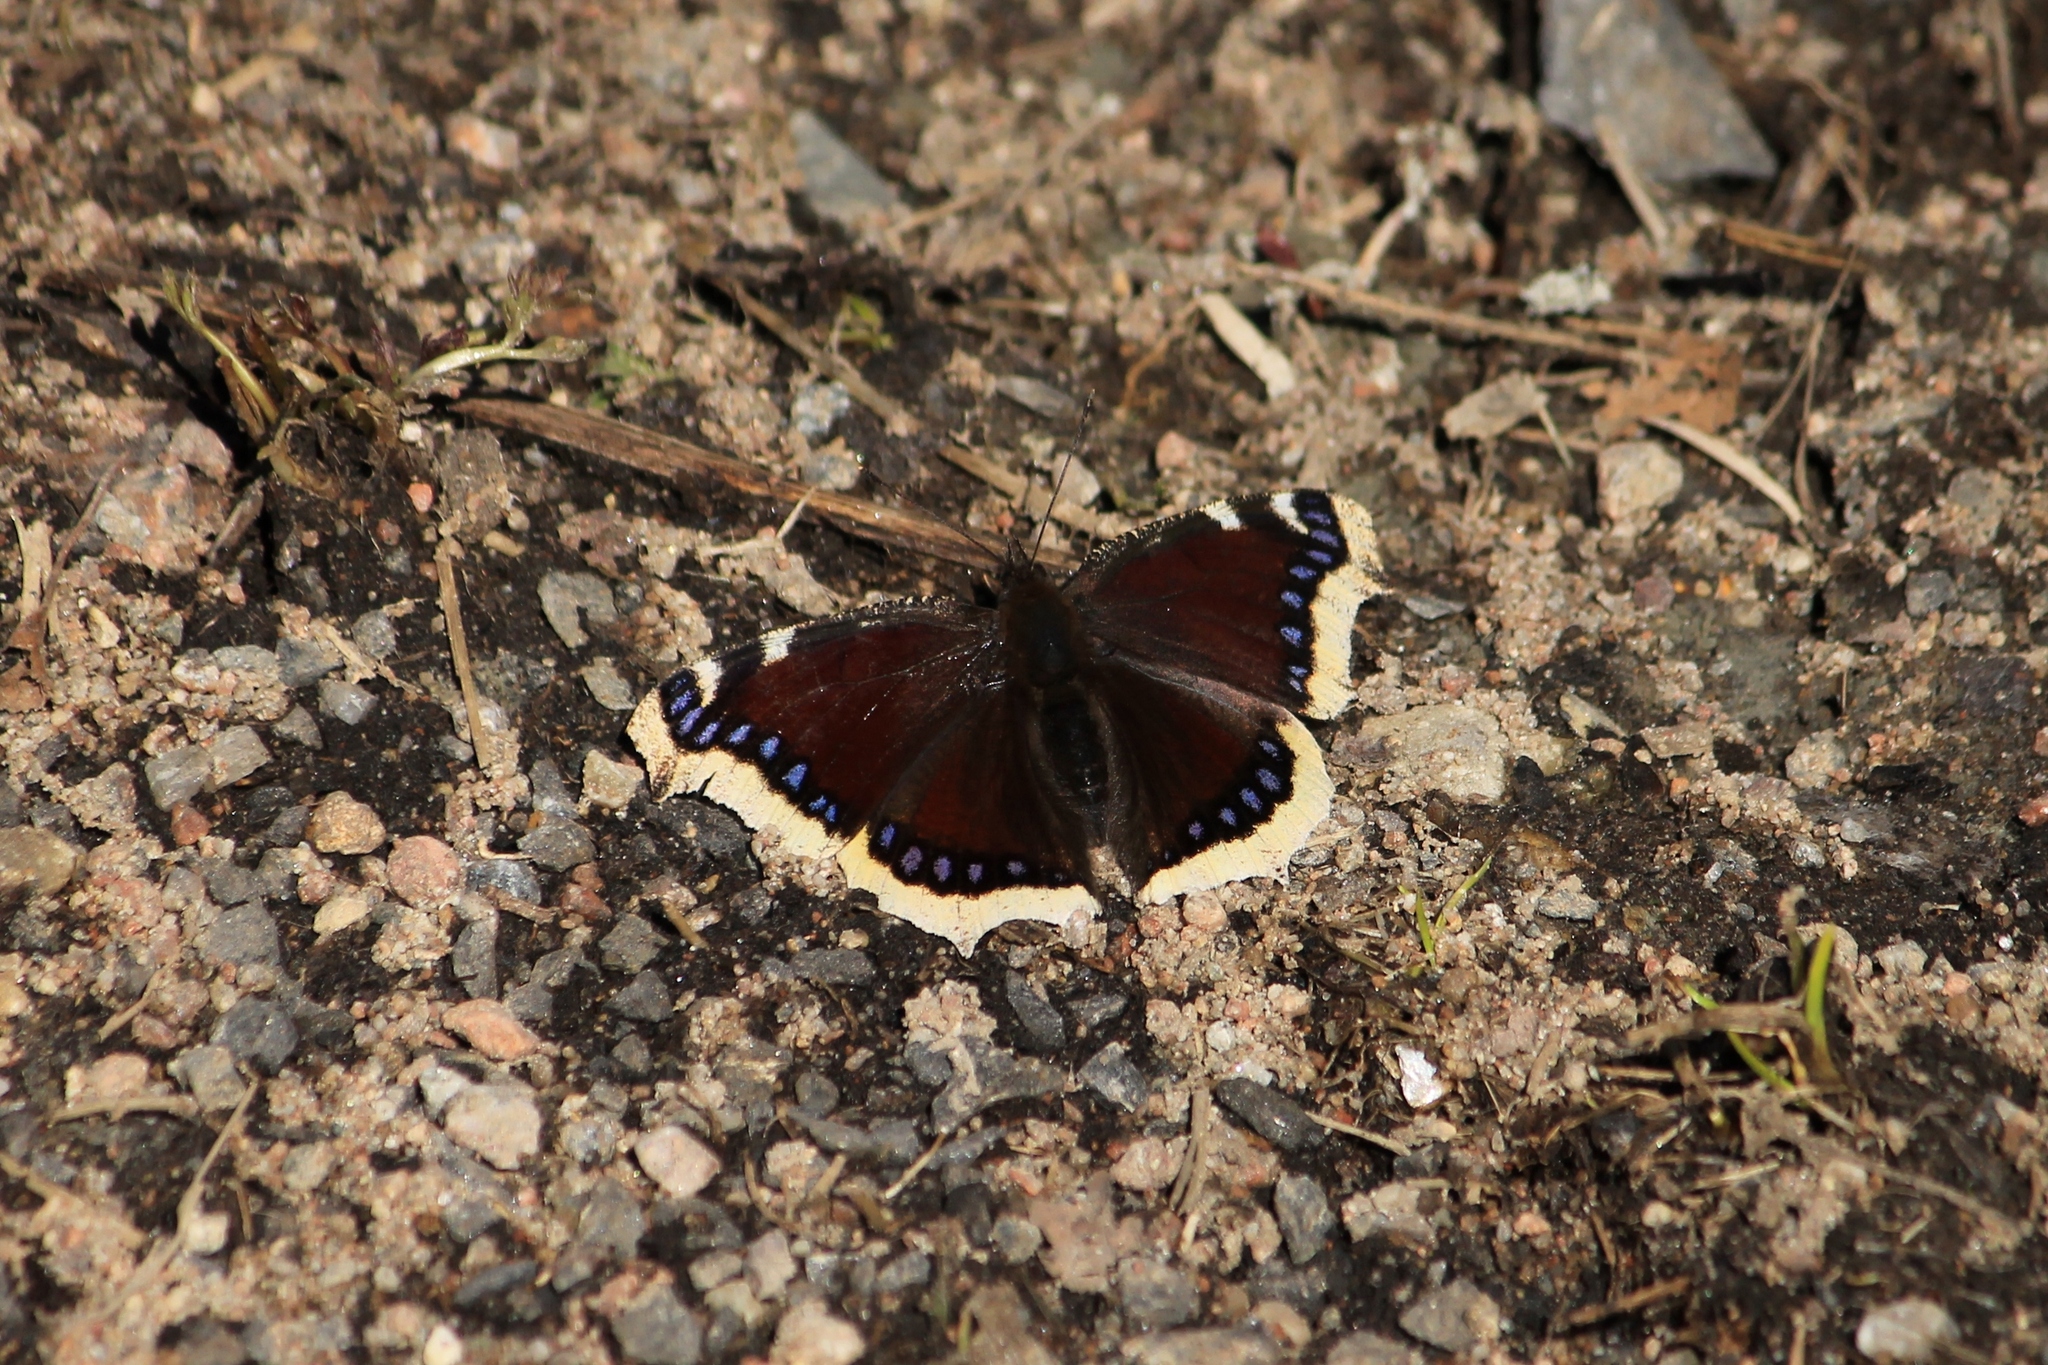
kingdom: Animalia
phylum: Arthropoda
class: Insecta
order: Lepidoptera
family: Nymphalidae
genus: Nymphalis
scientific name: Nymphalis antiopa
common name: Camberwell beauty
